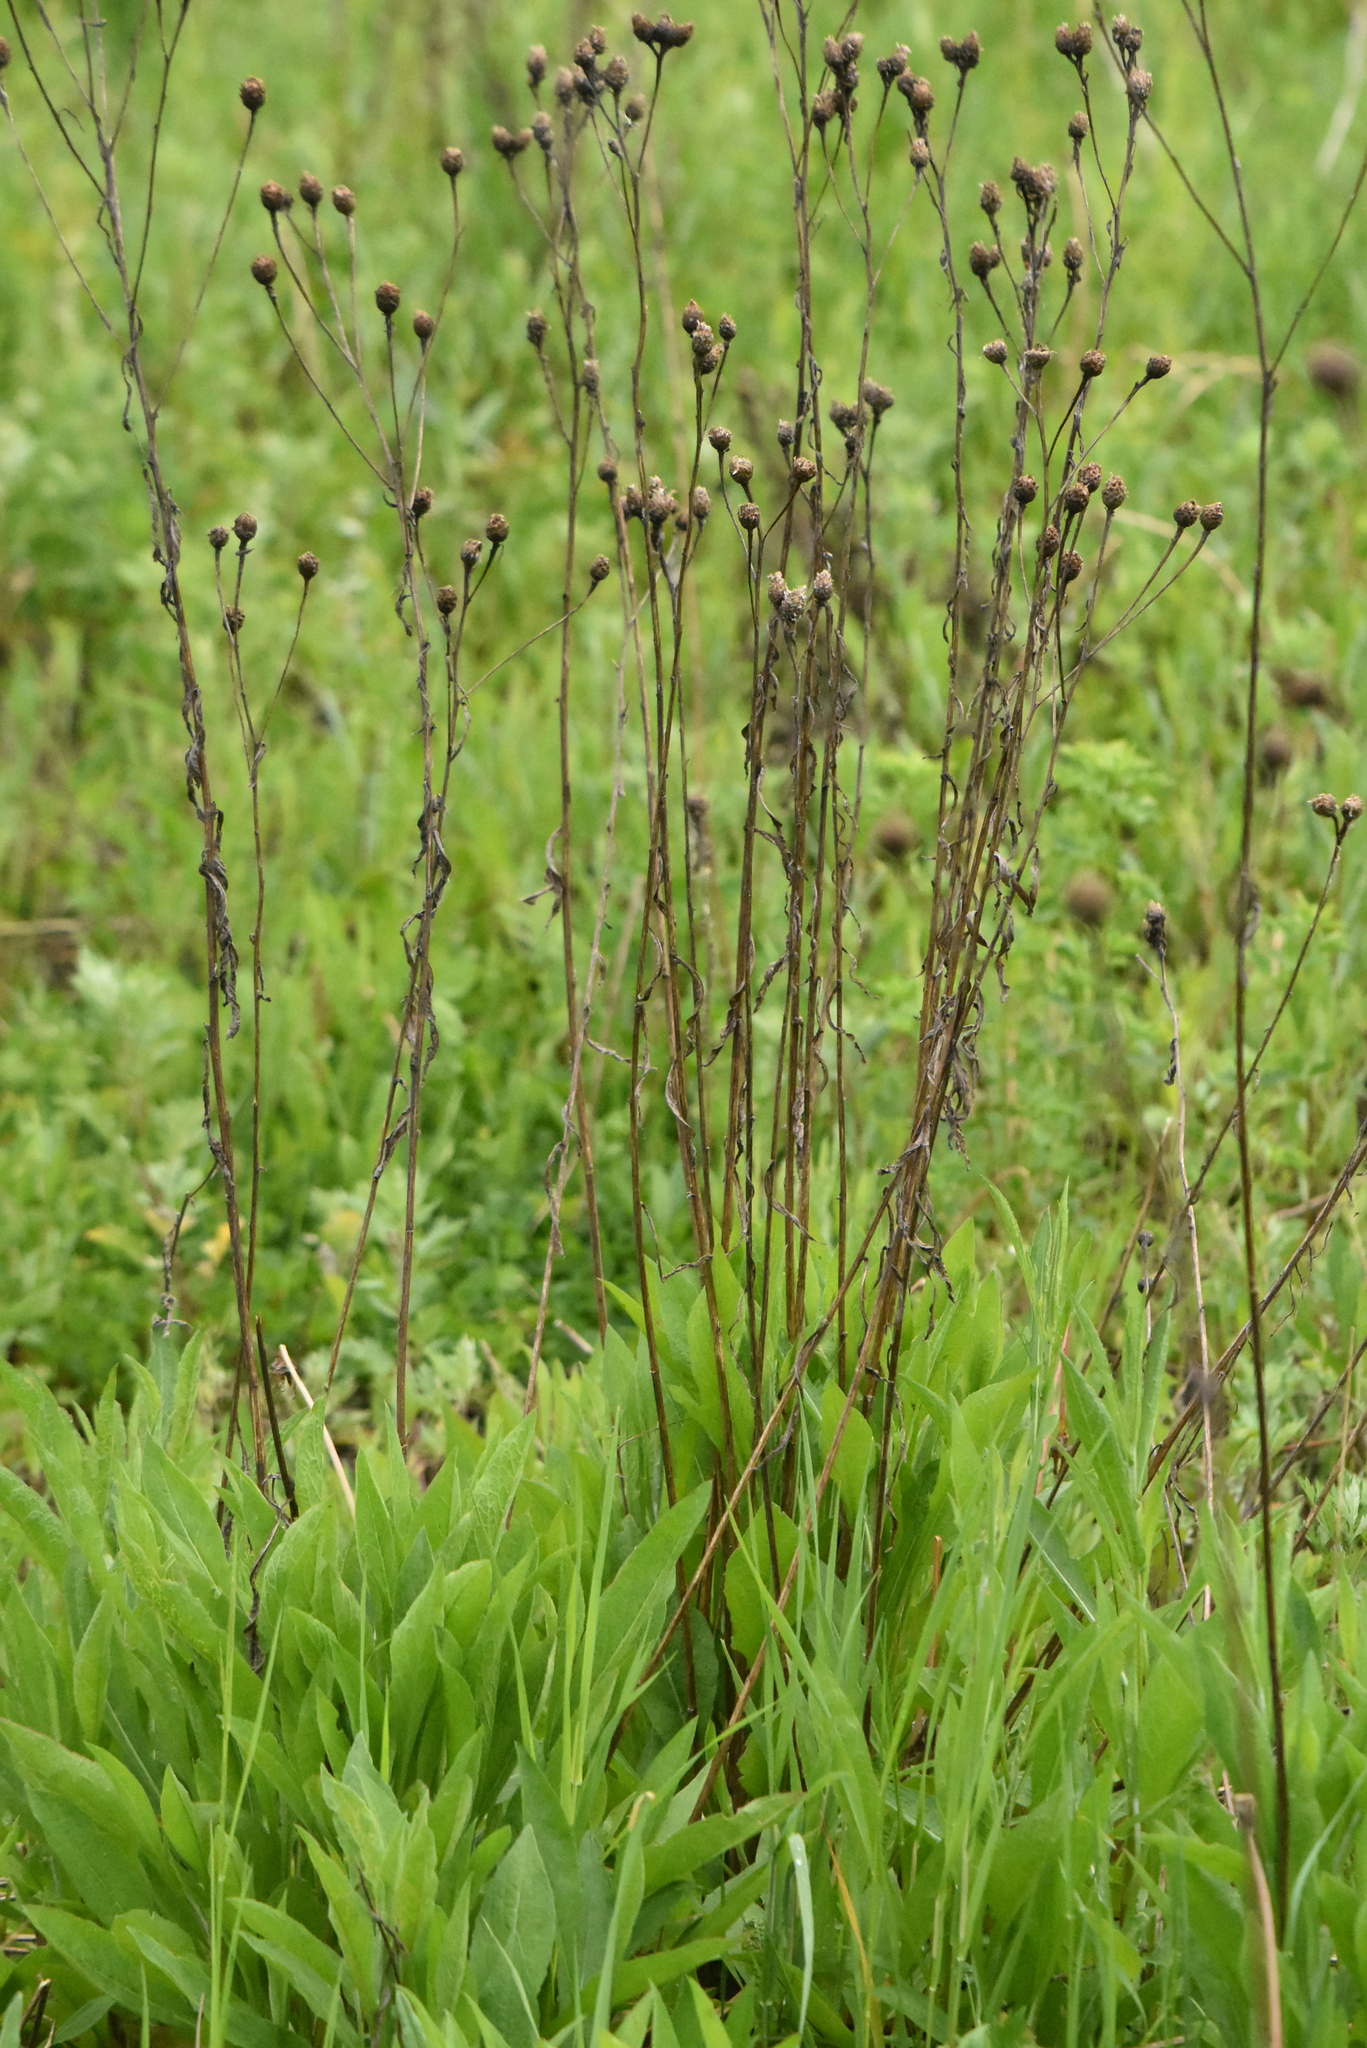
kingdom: Plantae
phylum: Tracheophyta
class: Magnoliopsida
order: Asterales
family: Asteraceae
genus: Centaurea
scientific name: Centaurea jacea
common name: Brown knapweed
